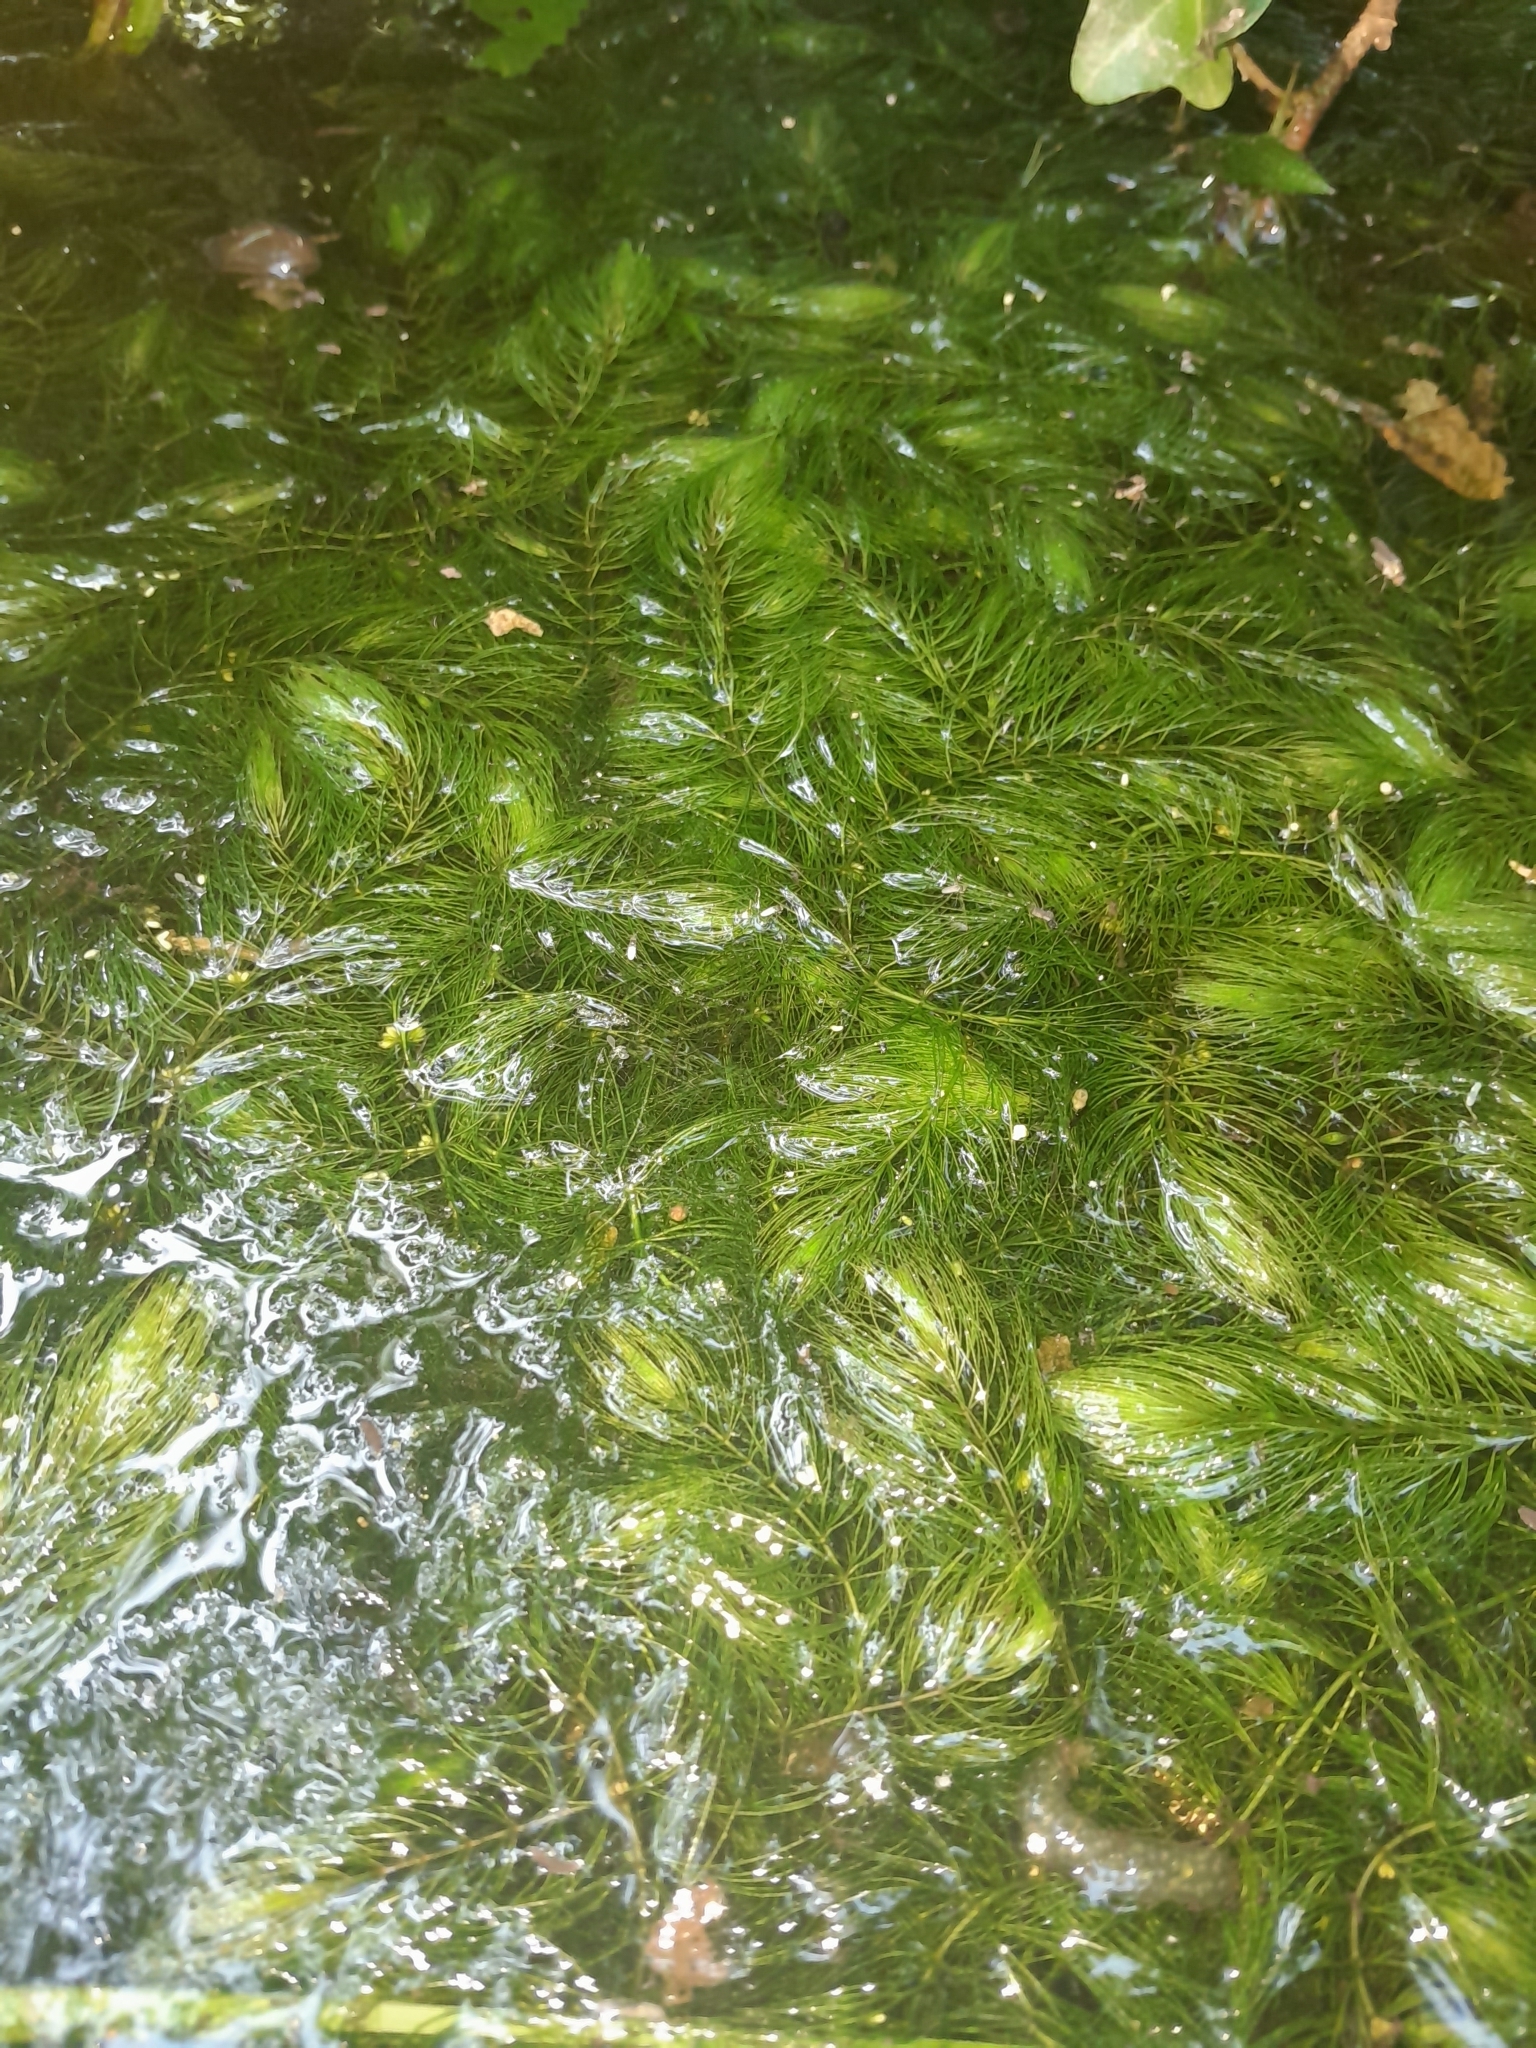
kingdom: Plantae
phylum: Tracheophyta
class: Magnoliopsida
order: Ceratophyllales
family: Ceratophyllaceae
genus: Ceratophyllum
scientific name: Ceratophyllum demersum
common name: Rigid hornwort
